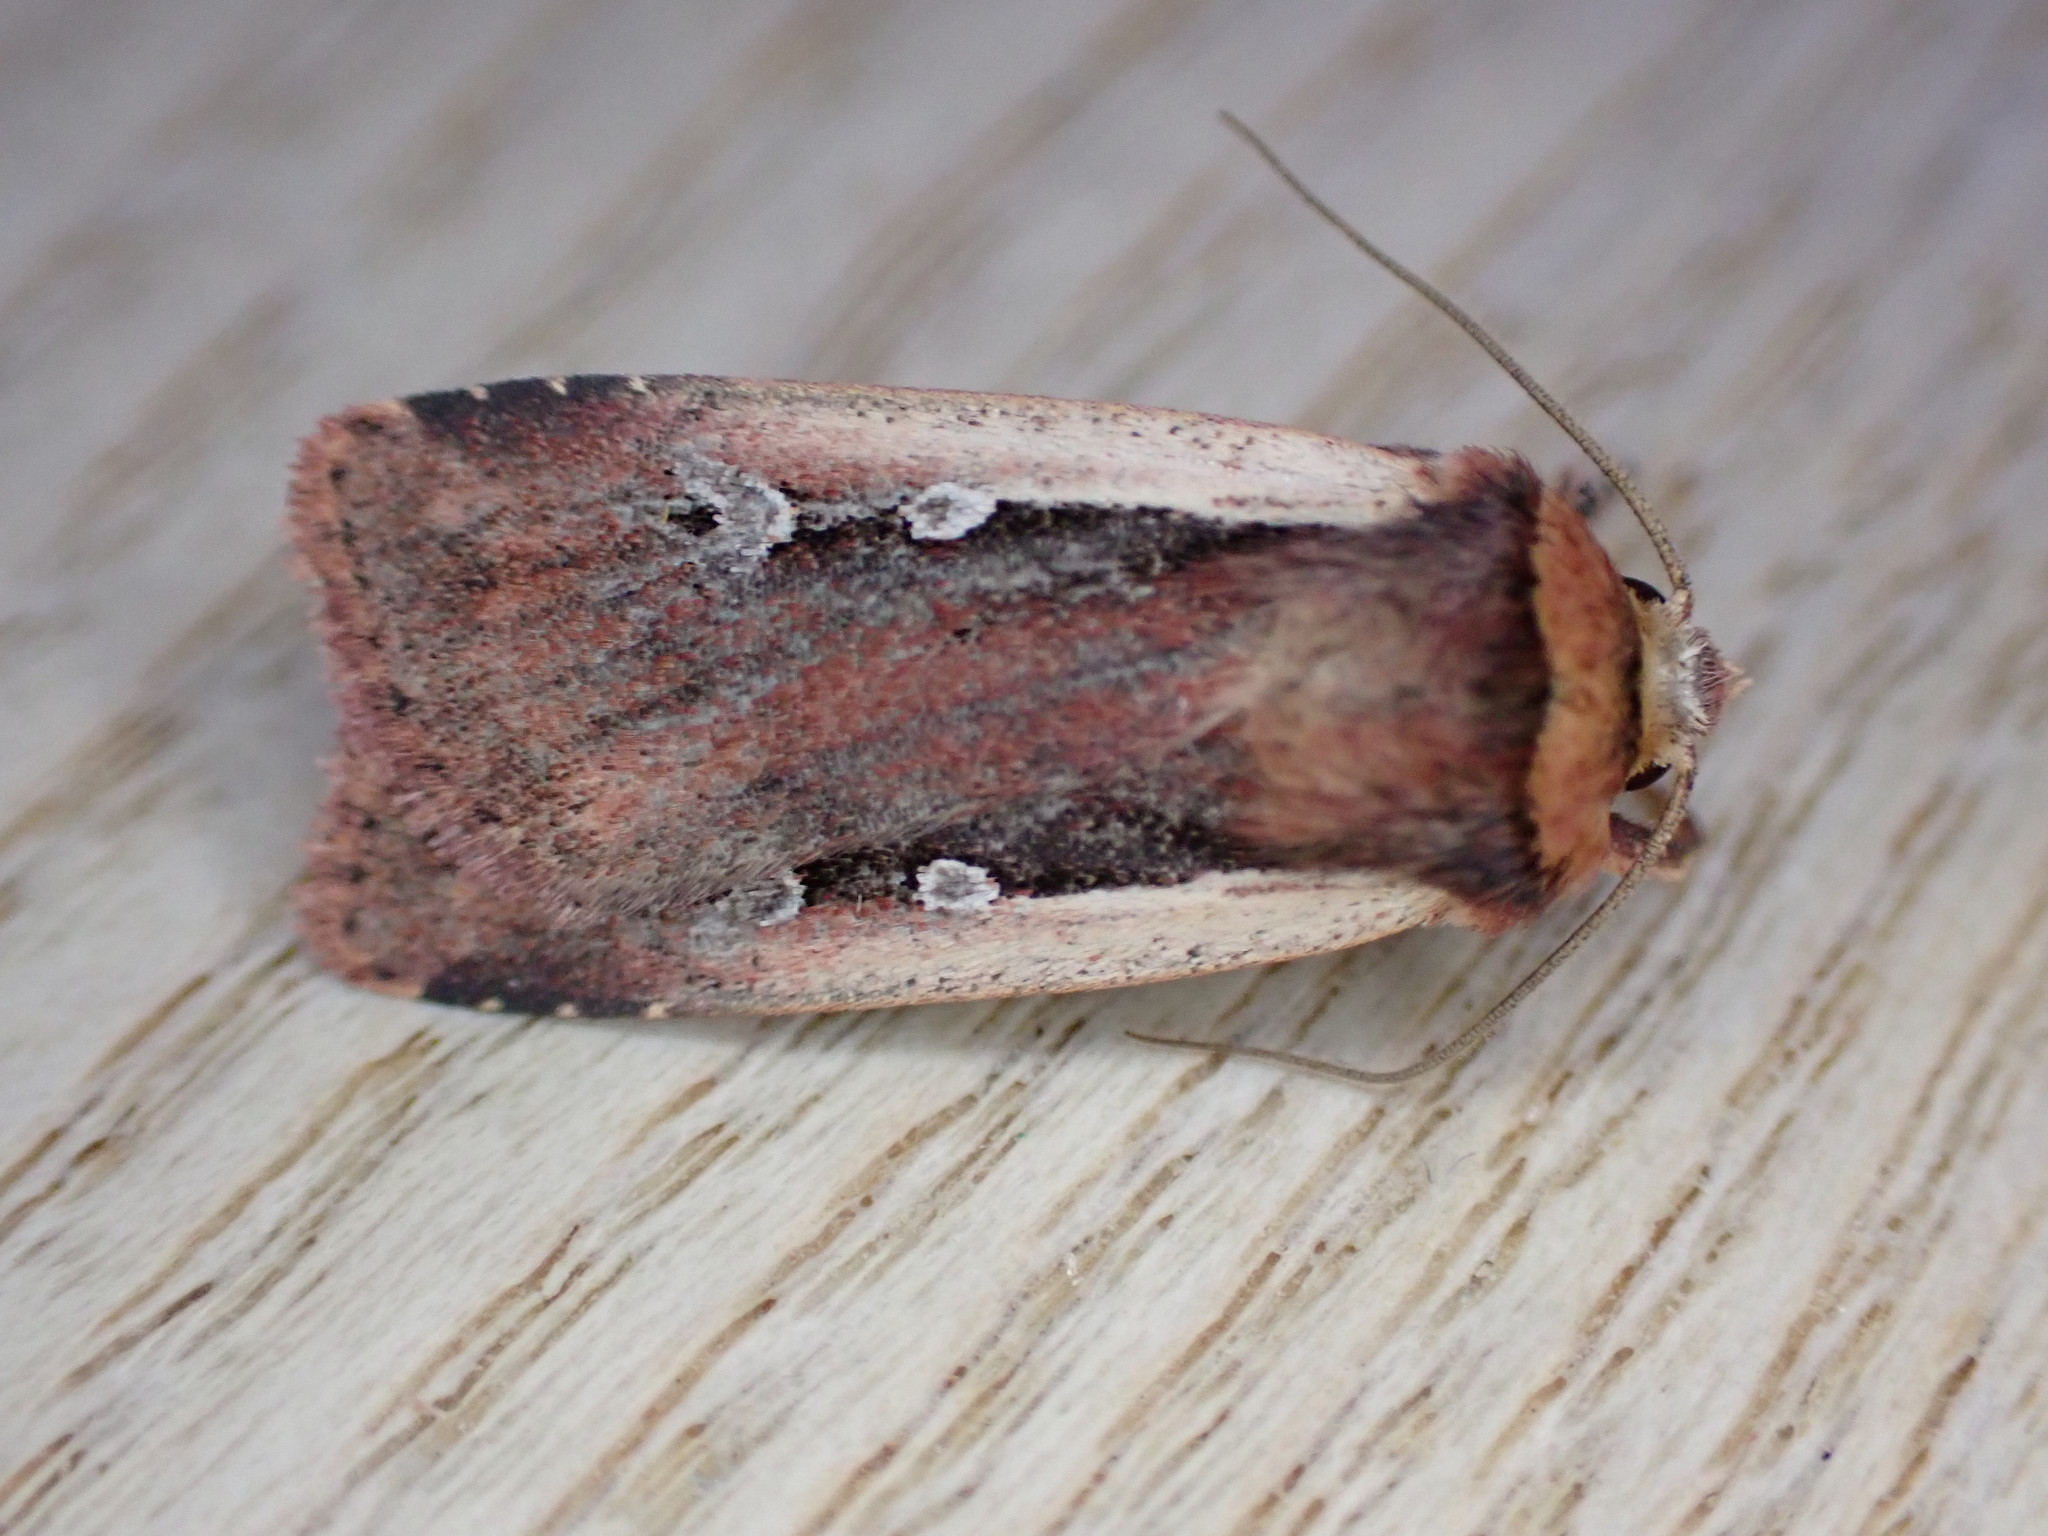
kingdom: Animalia
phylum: Arthropoda
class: Insecta
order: Lepidoptera
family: Noctuidae
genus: Ochropleura
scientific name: Ochropleura plecta
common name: Flame shoulder
